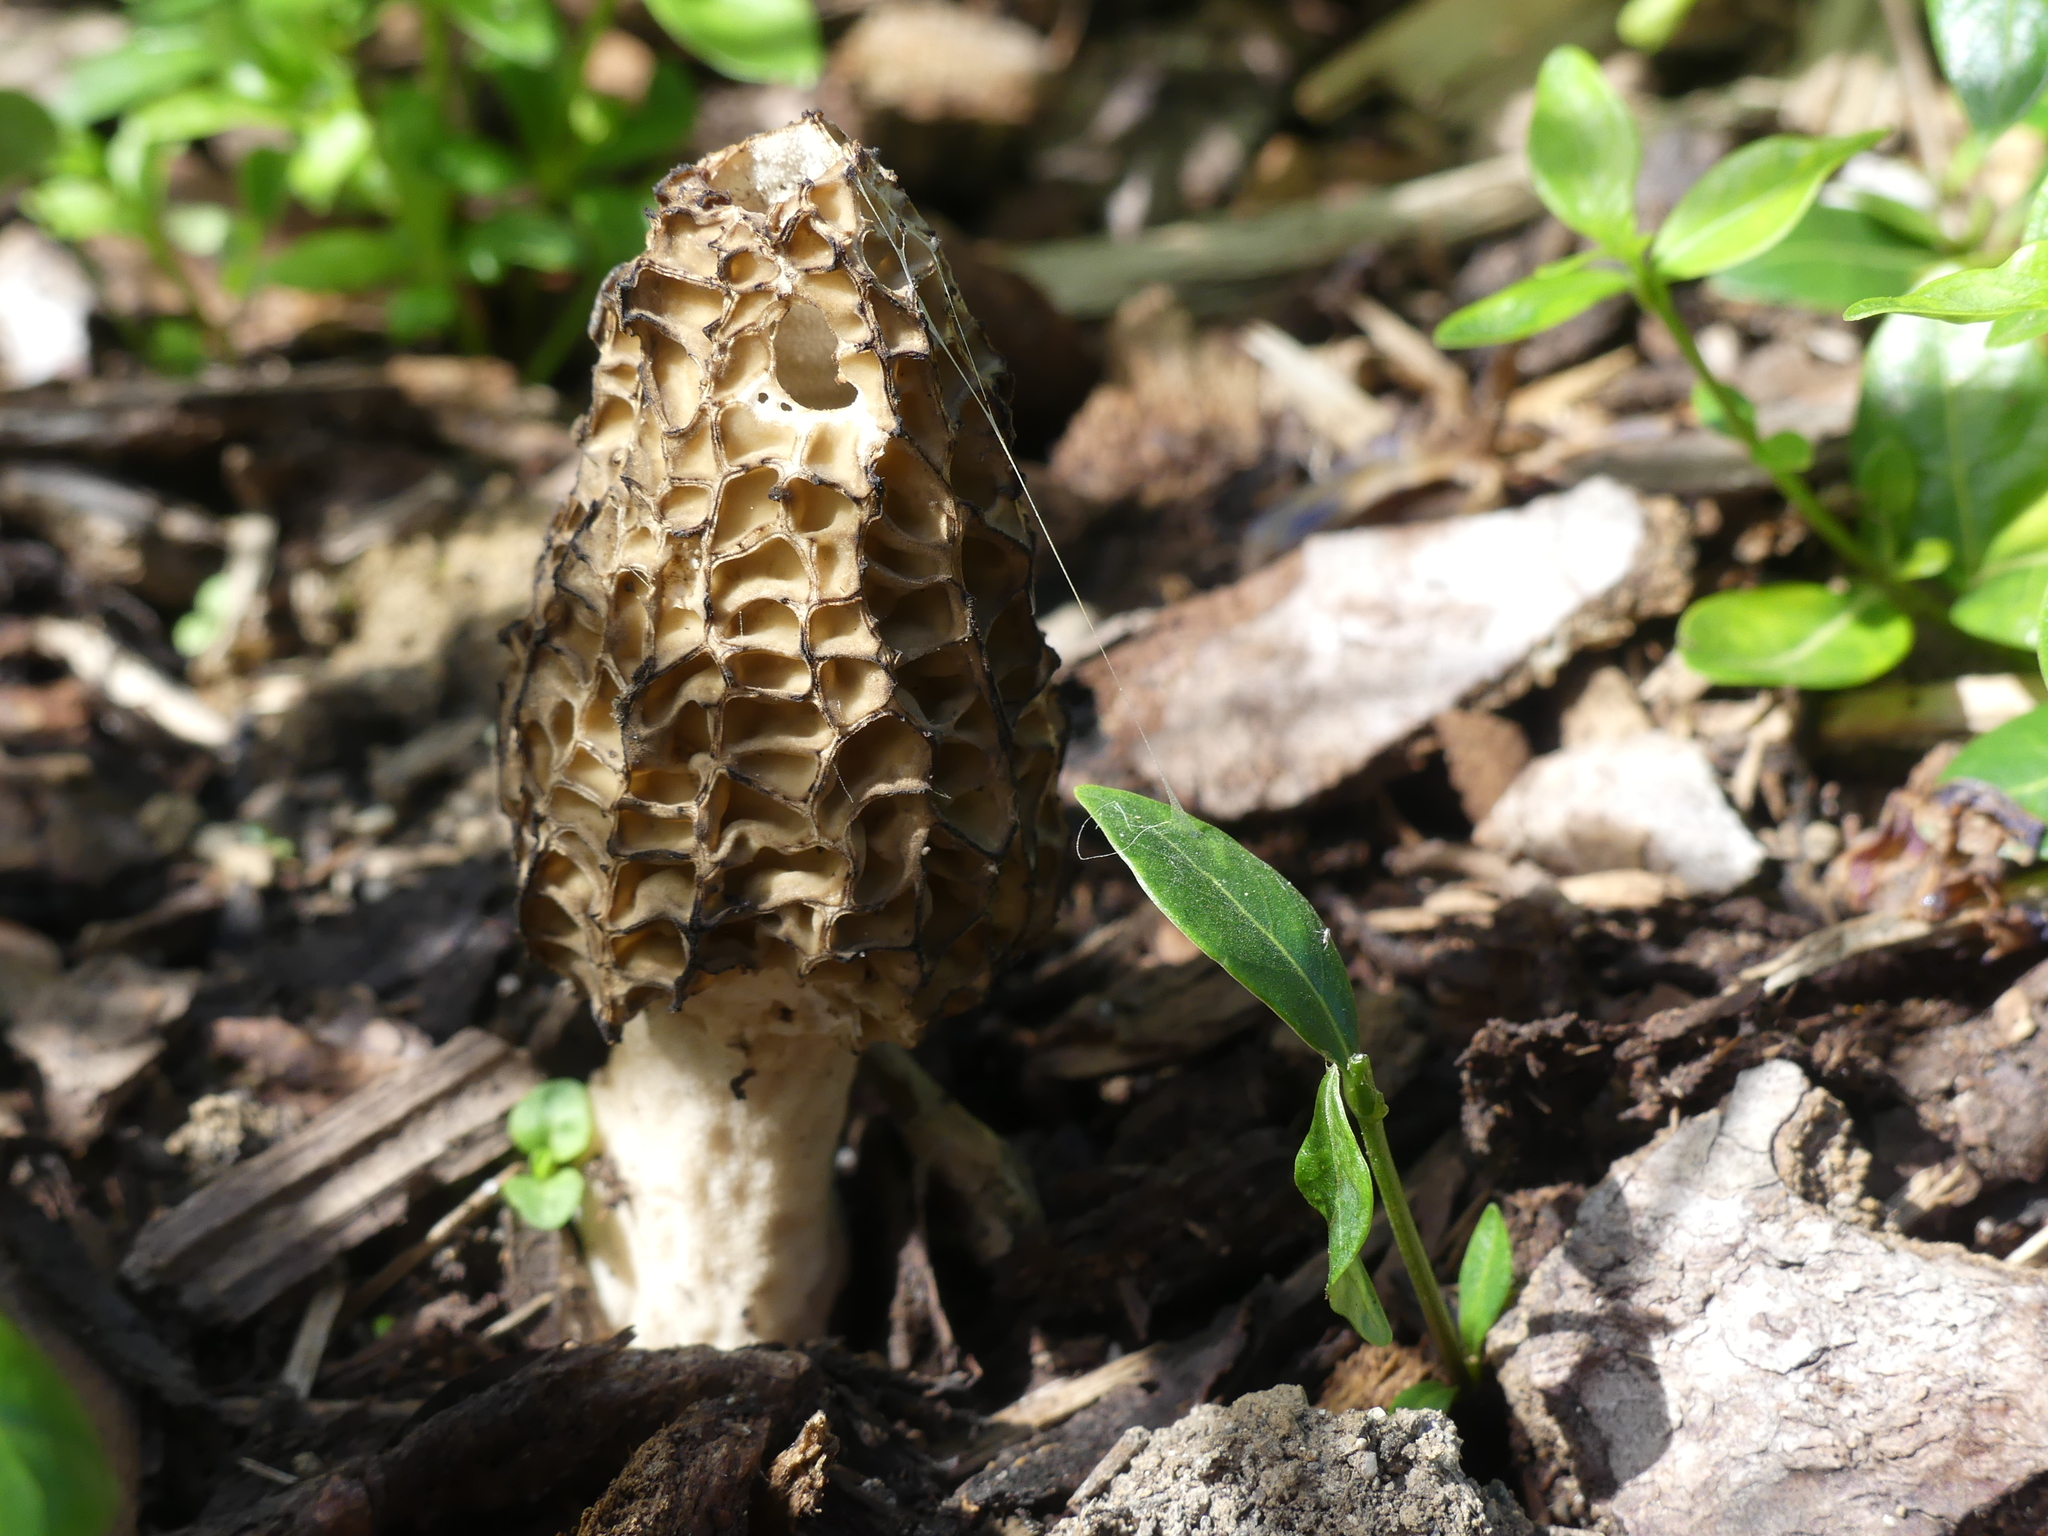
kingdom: Fungi
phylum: Ascomycota
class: Pezizomycetes
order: Pezizales
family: Morchellaceae
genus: Morchella
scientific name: Morchella importuna
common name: Landscaping black morel
